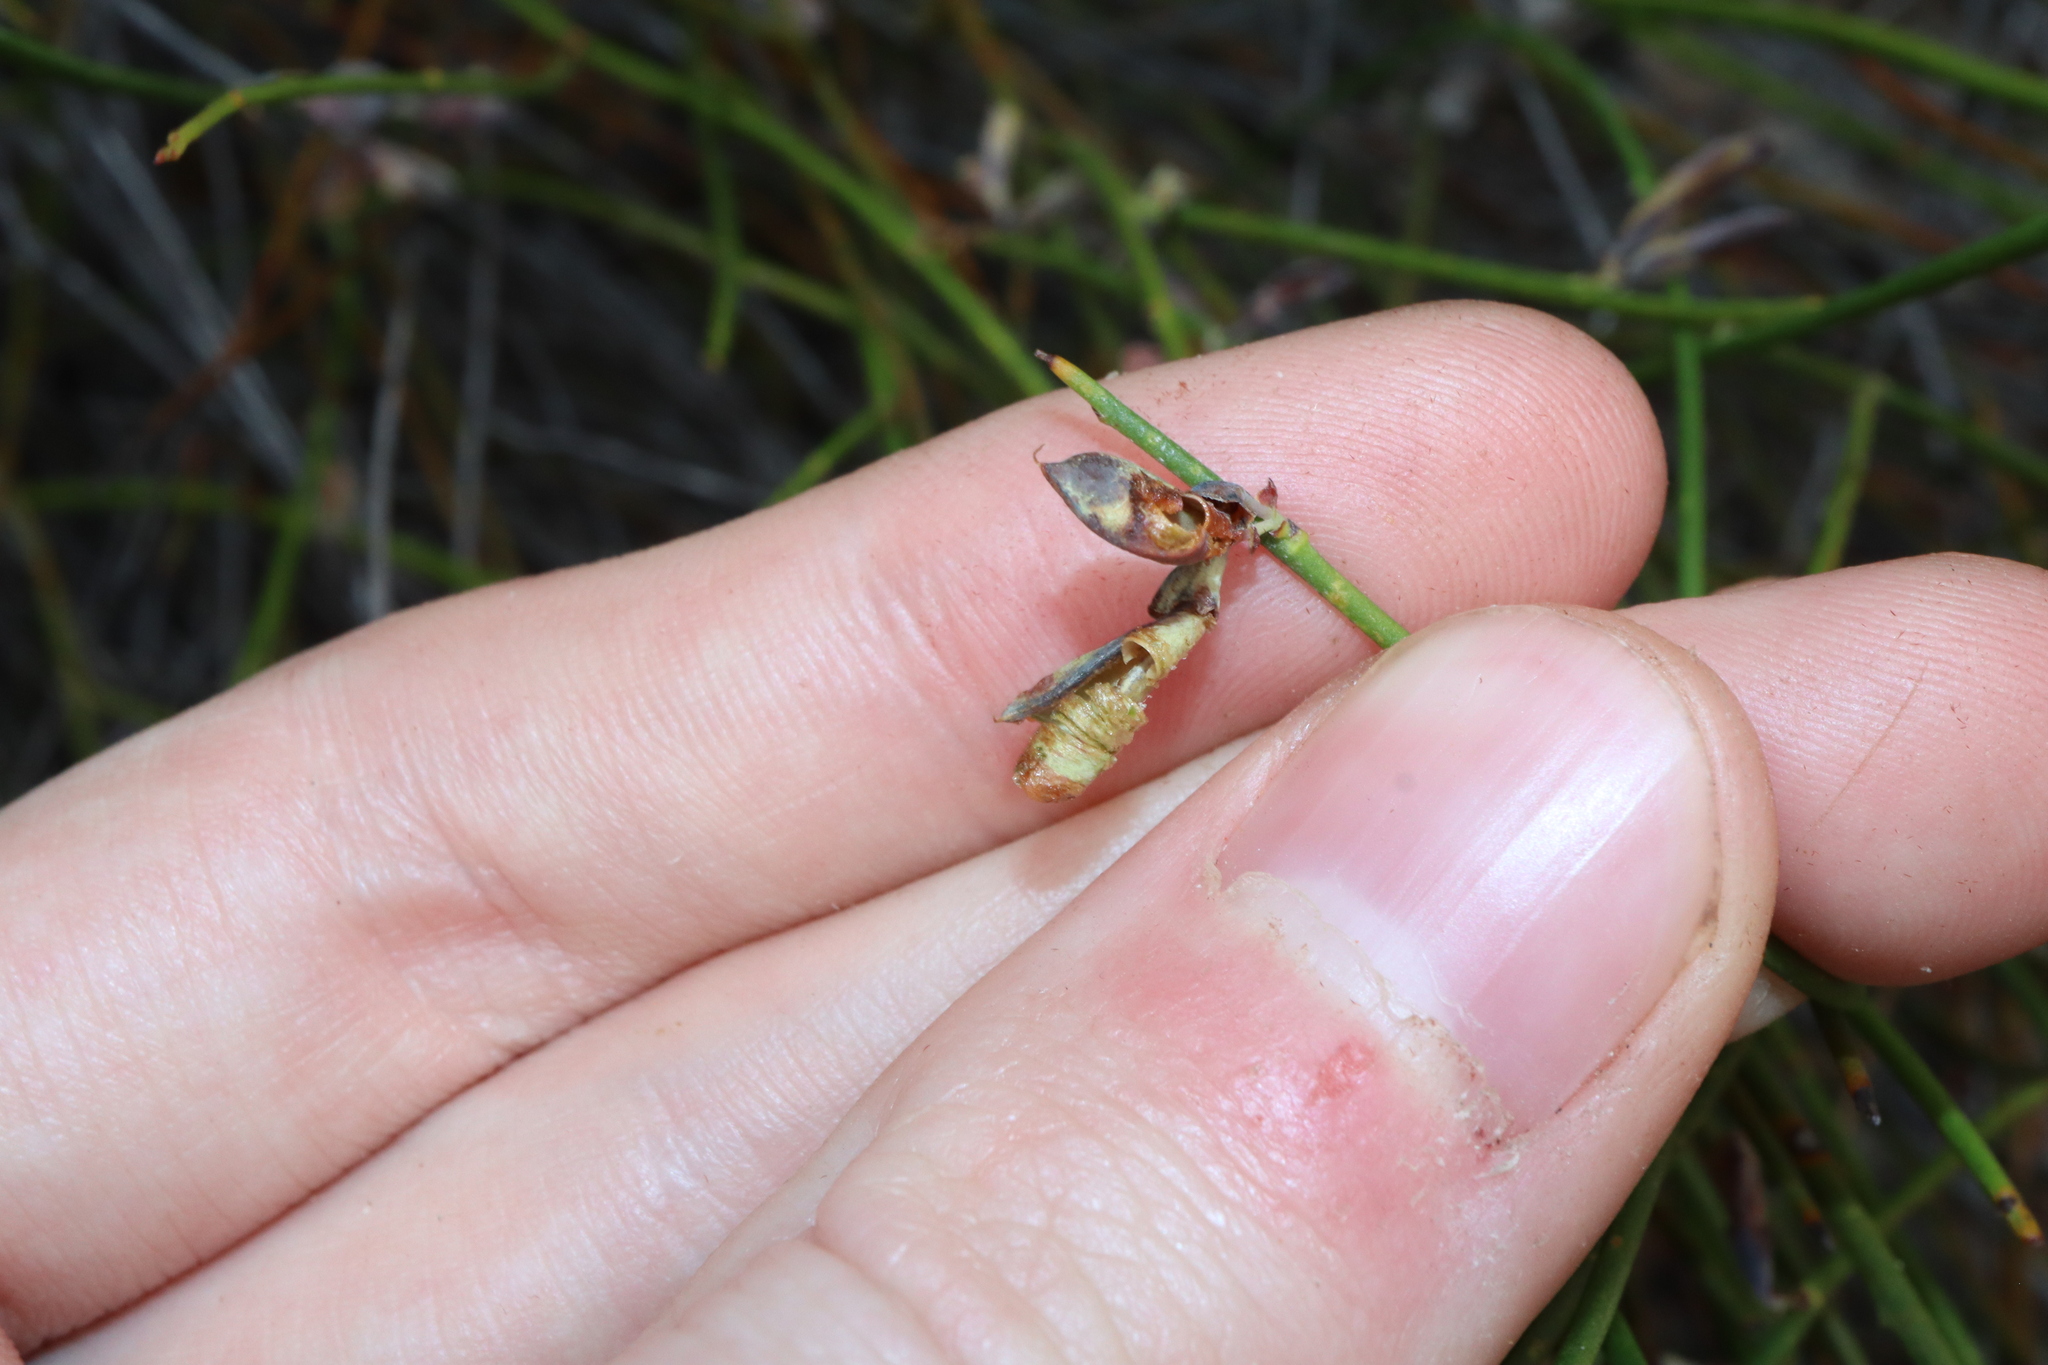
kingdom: Plantae
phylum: Tracheophyta
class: Magnoliopsida
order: Fabales
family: Fabaceae
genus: Daviesia
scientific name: Daviesia scoparia
